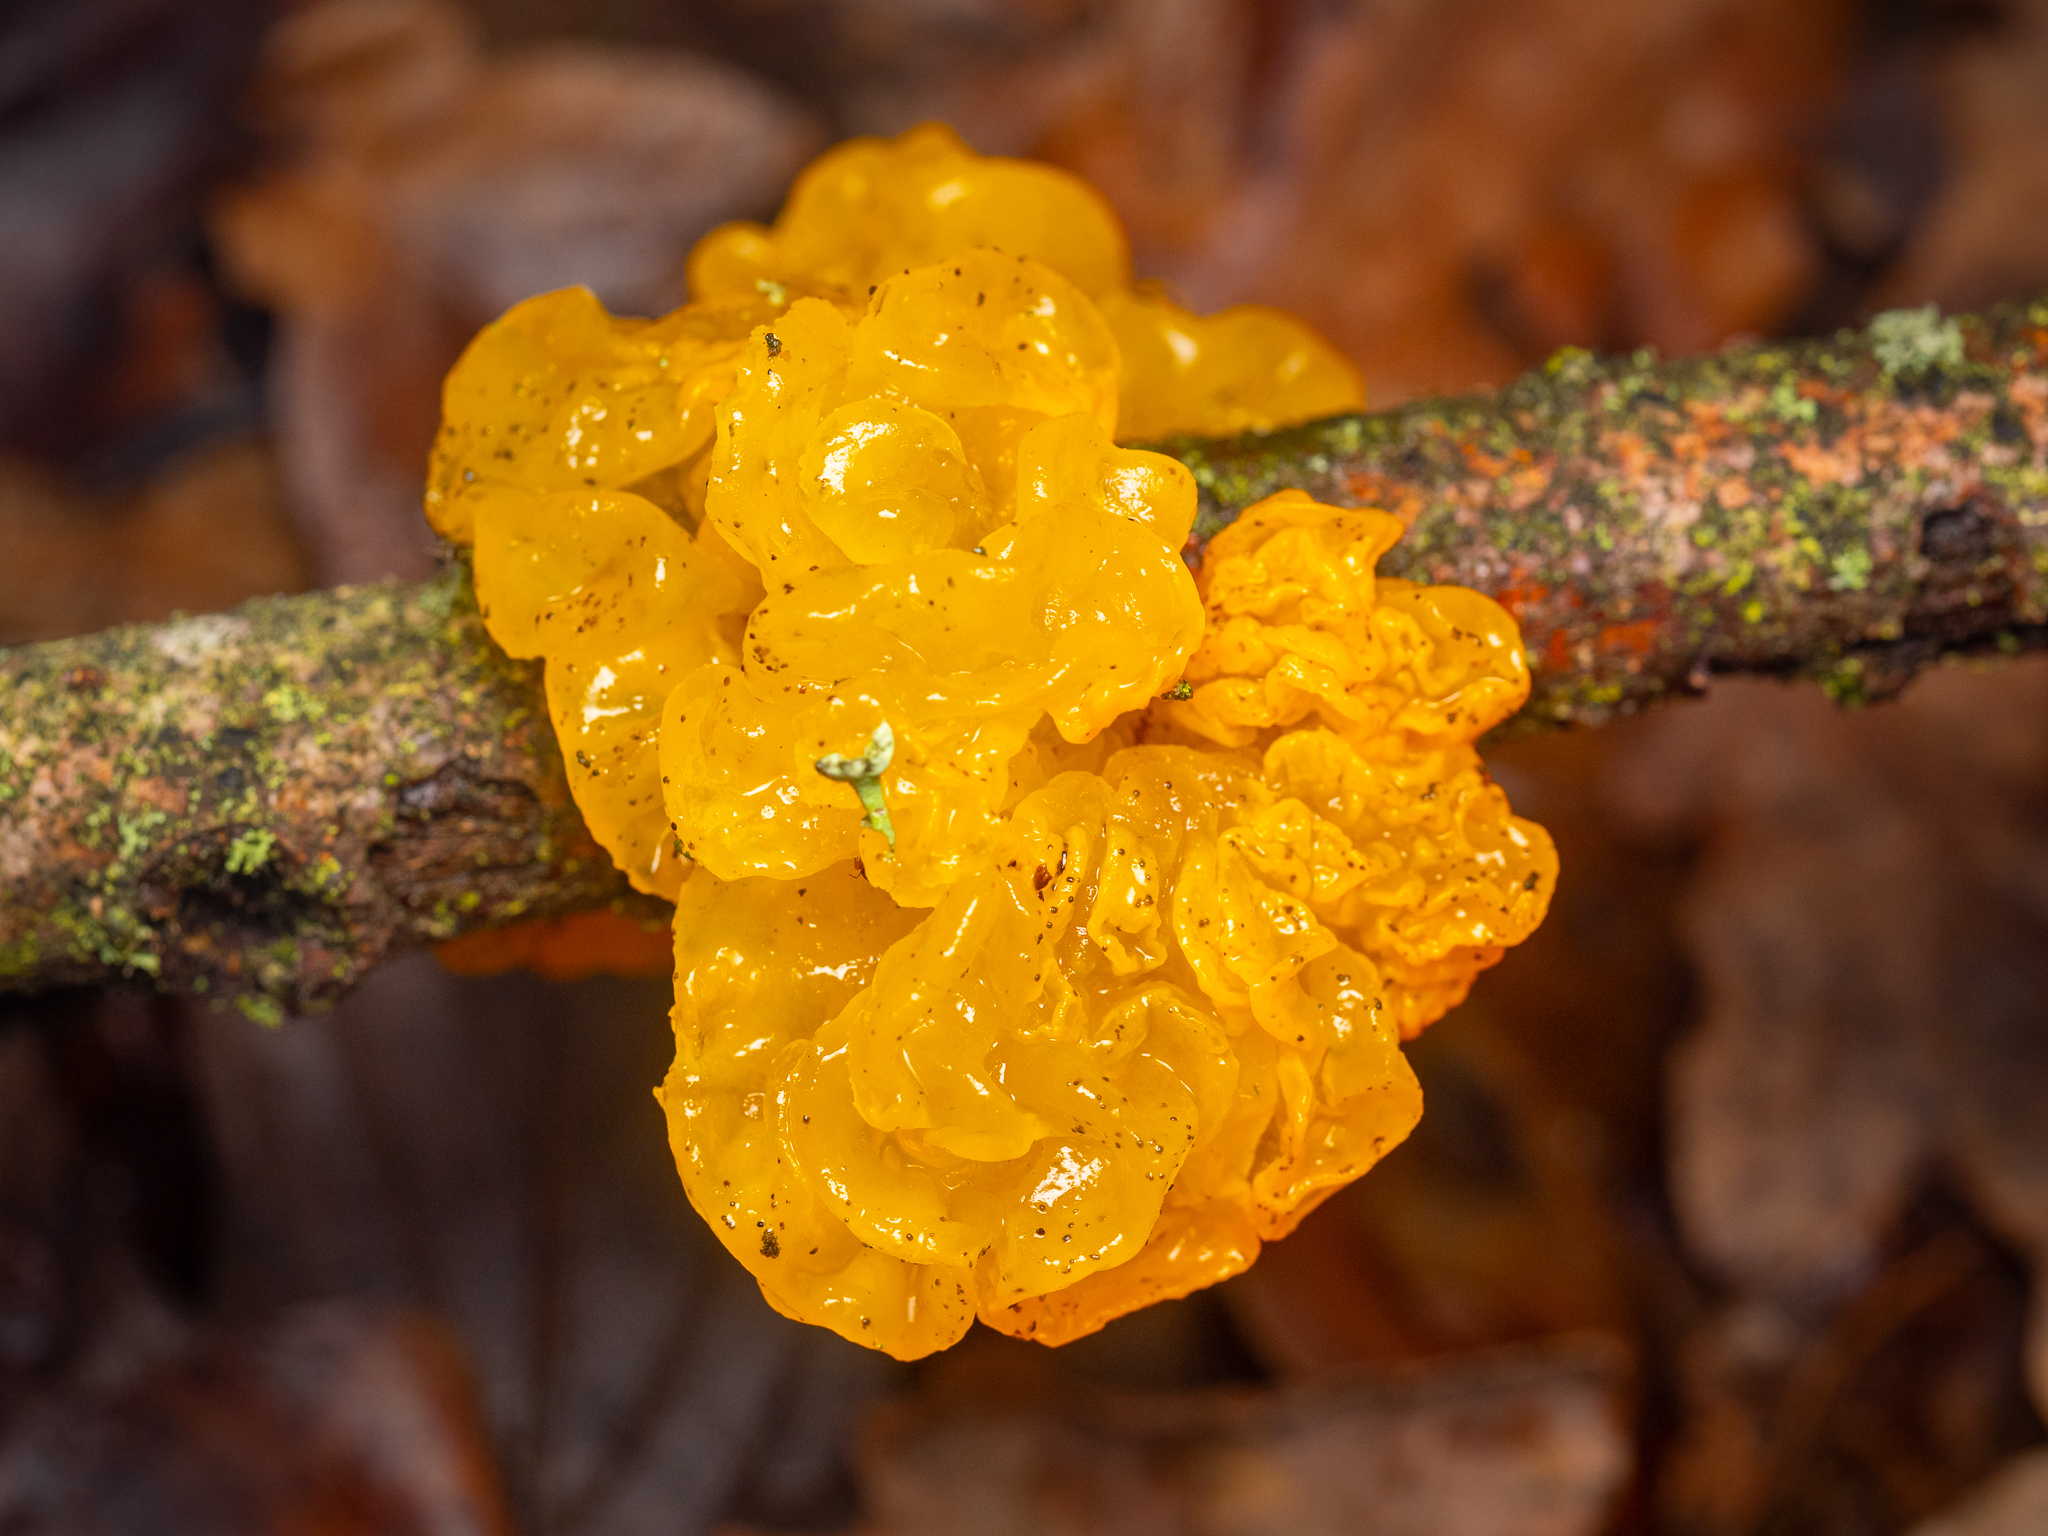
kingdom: Fungi
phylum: Basidiomycota
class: Tremellomycetes
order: Tremellales
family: Tremellaceae
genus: Tremella
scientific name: Tremella mesenterica
